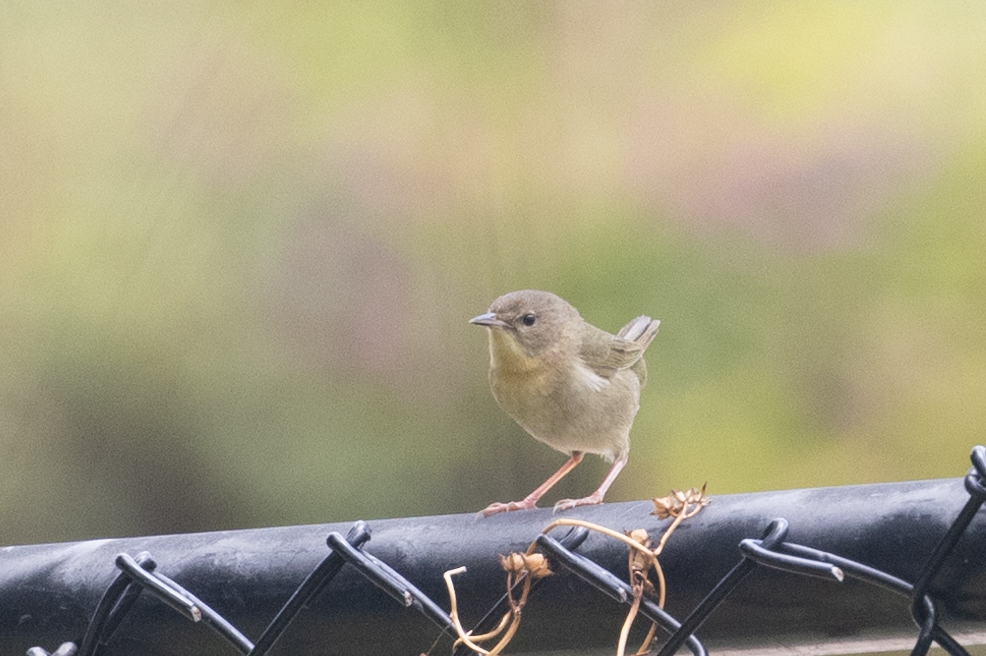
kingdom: Animalia
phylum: Chordata
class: Aves
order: Passeriformes
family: Parulidae
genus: Geothlypis
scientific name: Geothlypis trichas
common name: Common yellowthroat
